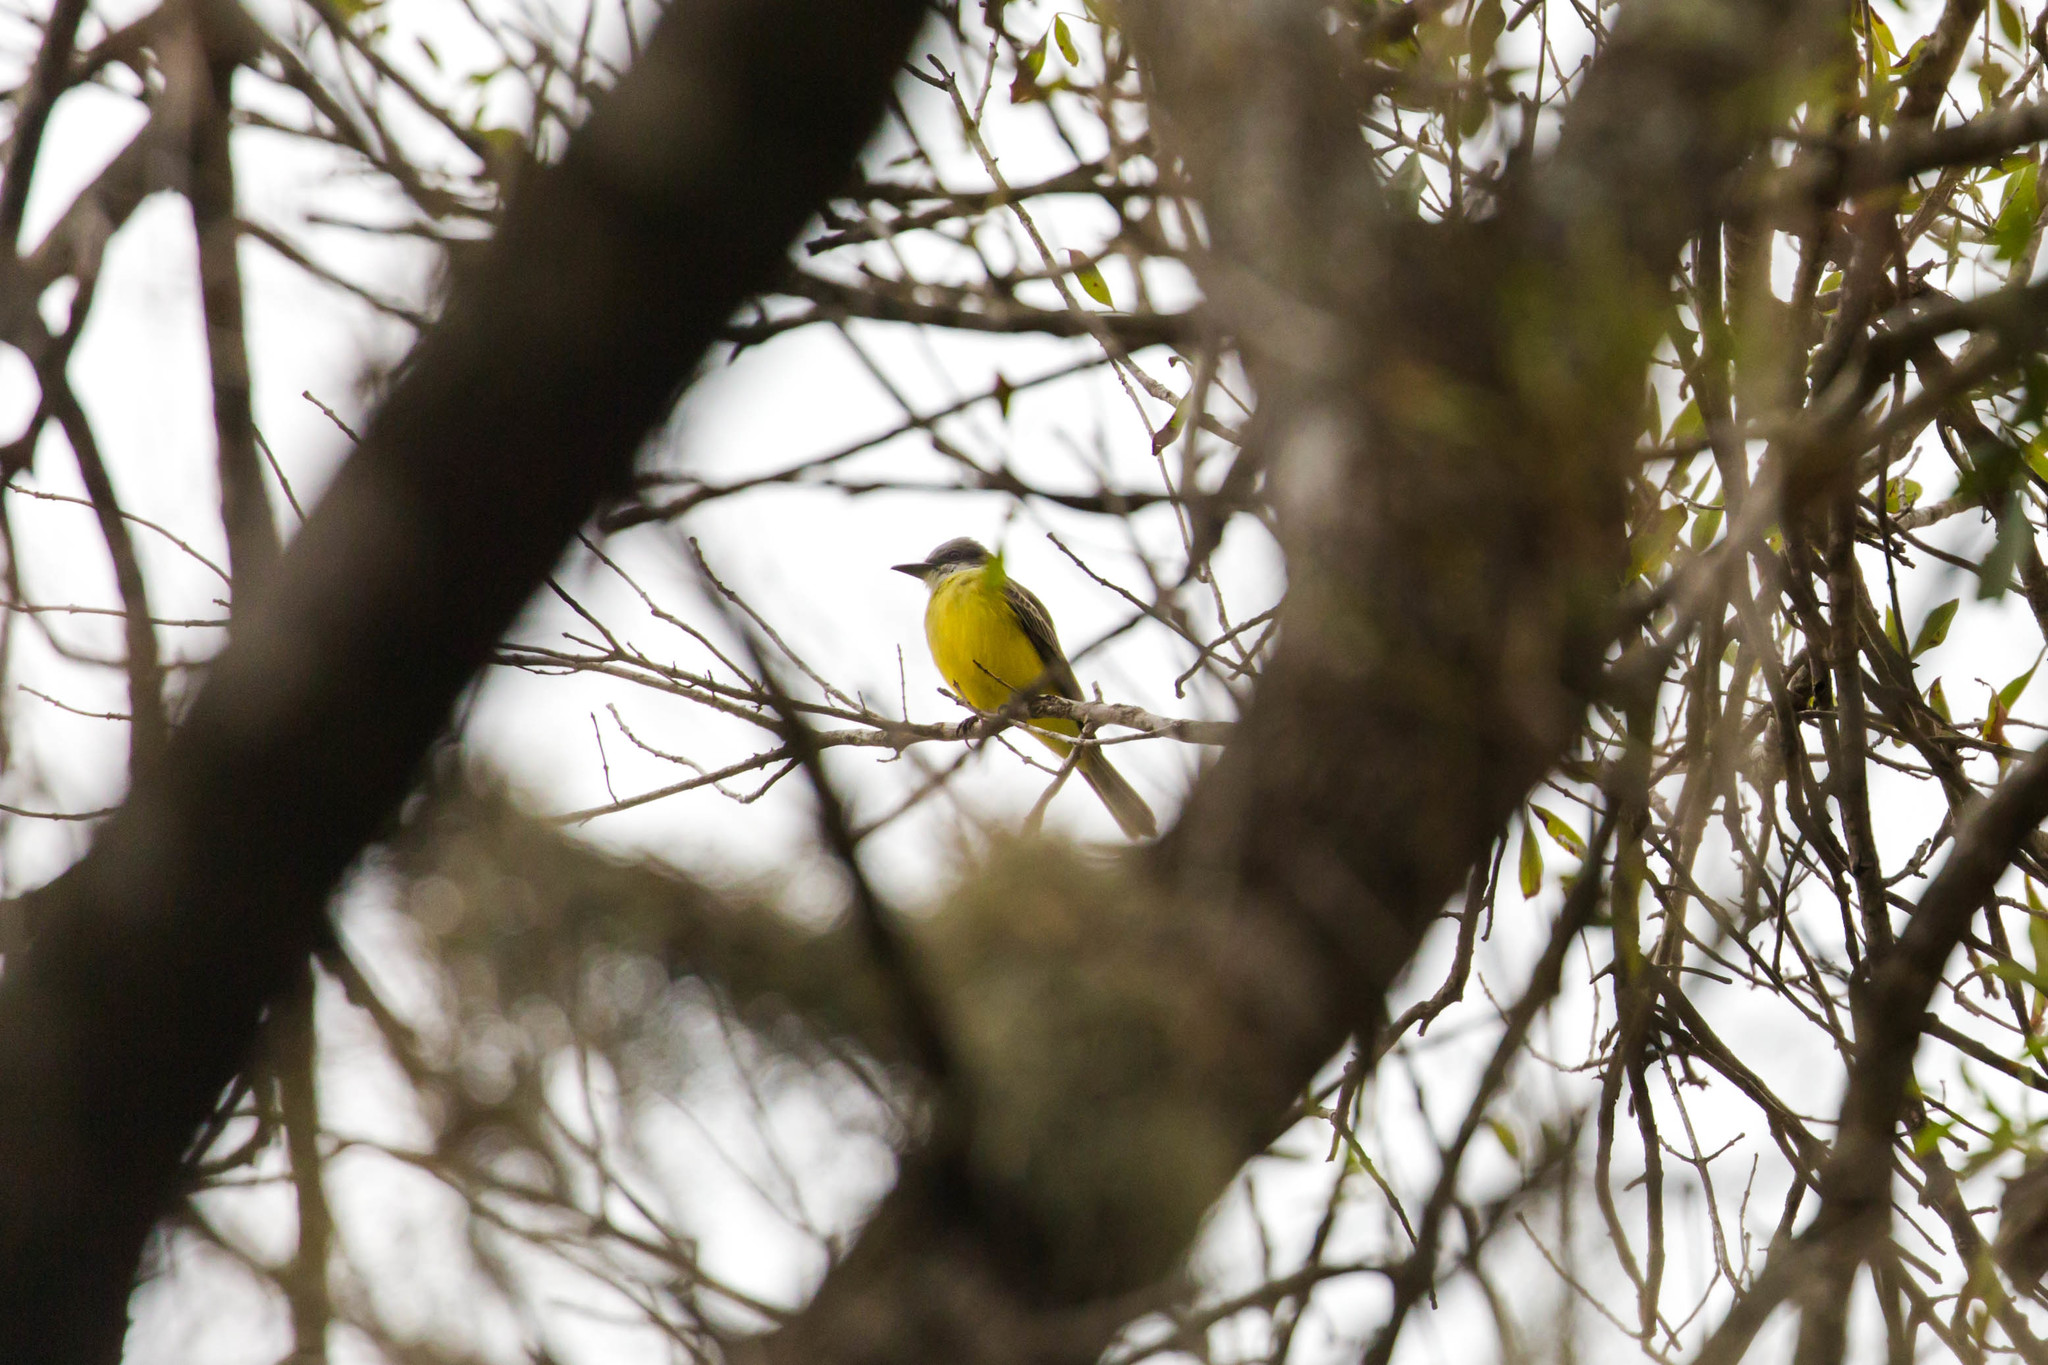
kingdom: Animalia
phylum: Chordata
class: Aves
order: Passeriformes
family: Tyrannidae
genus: Tyrannus
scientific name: Tyrannus
